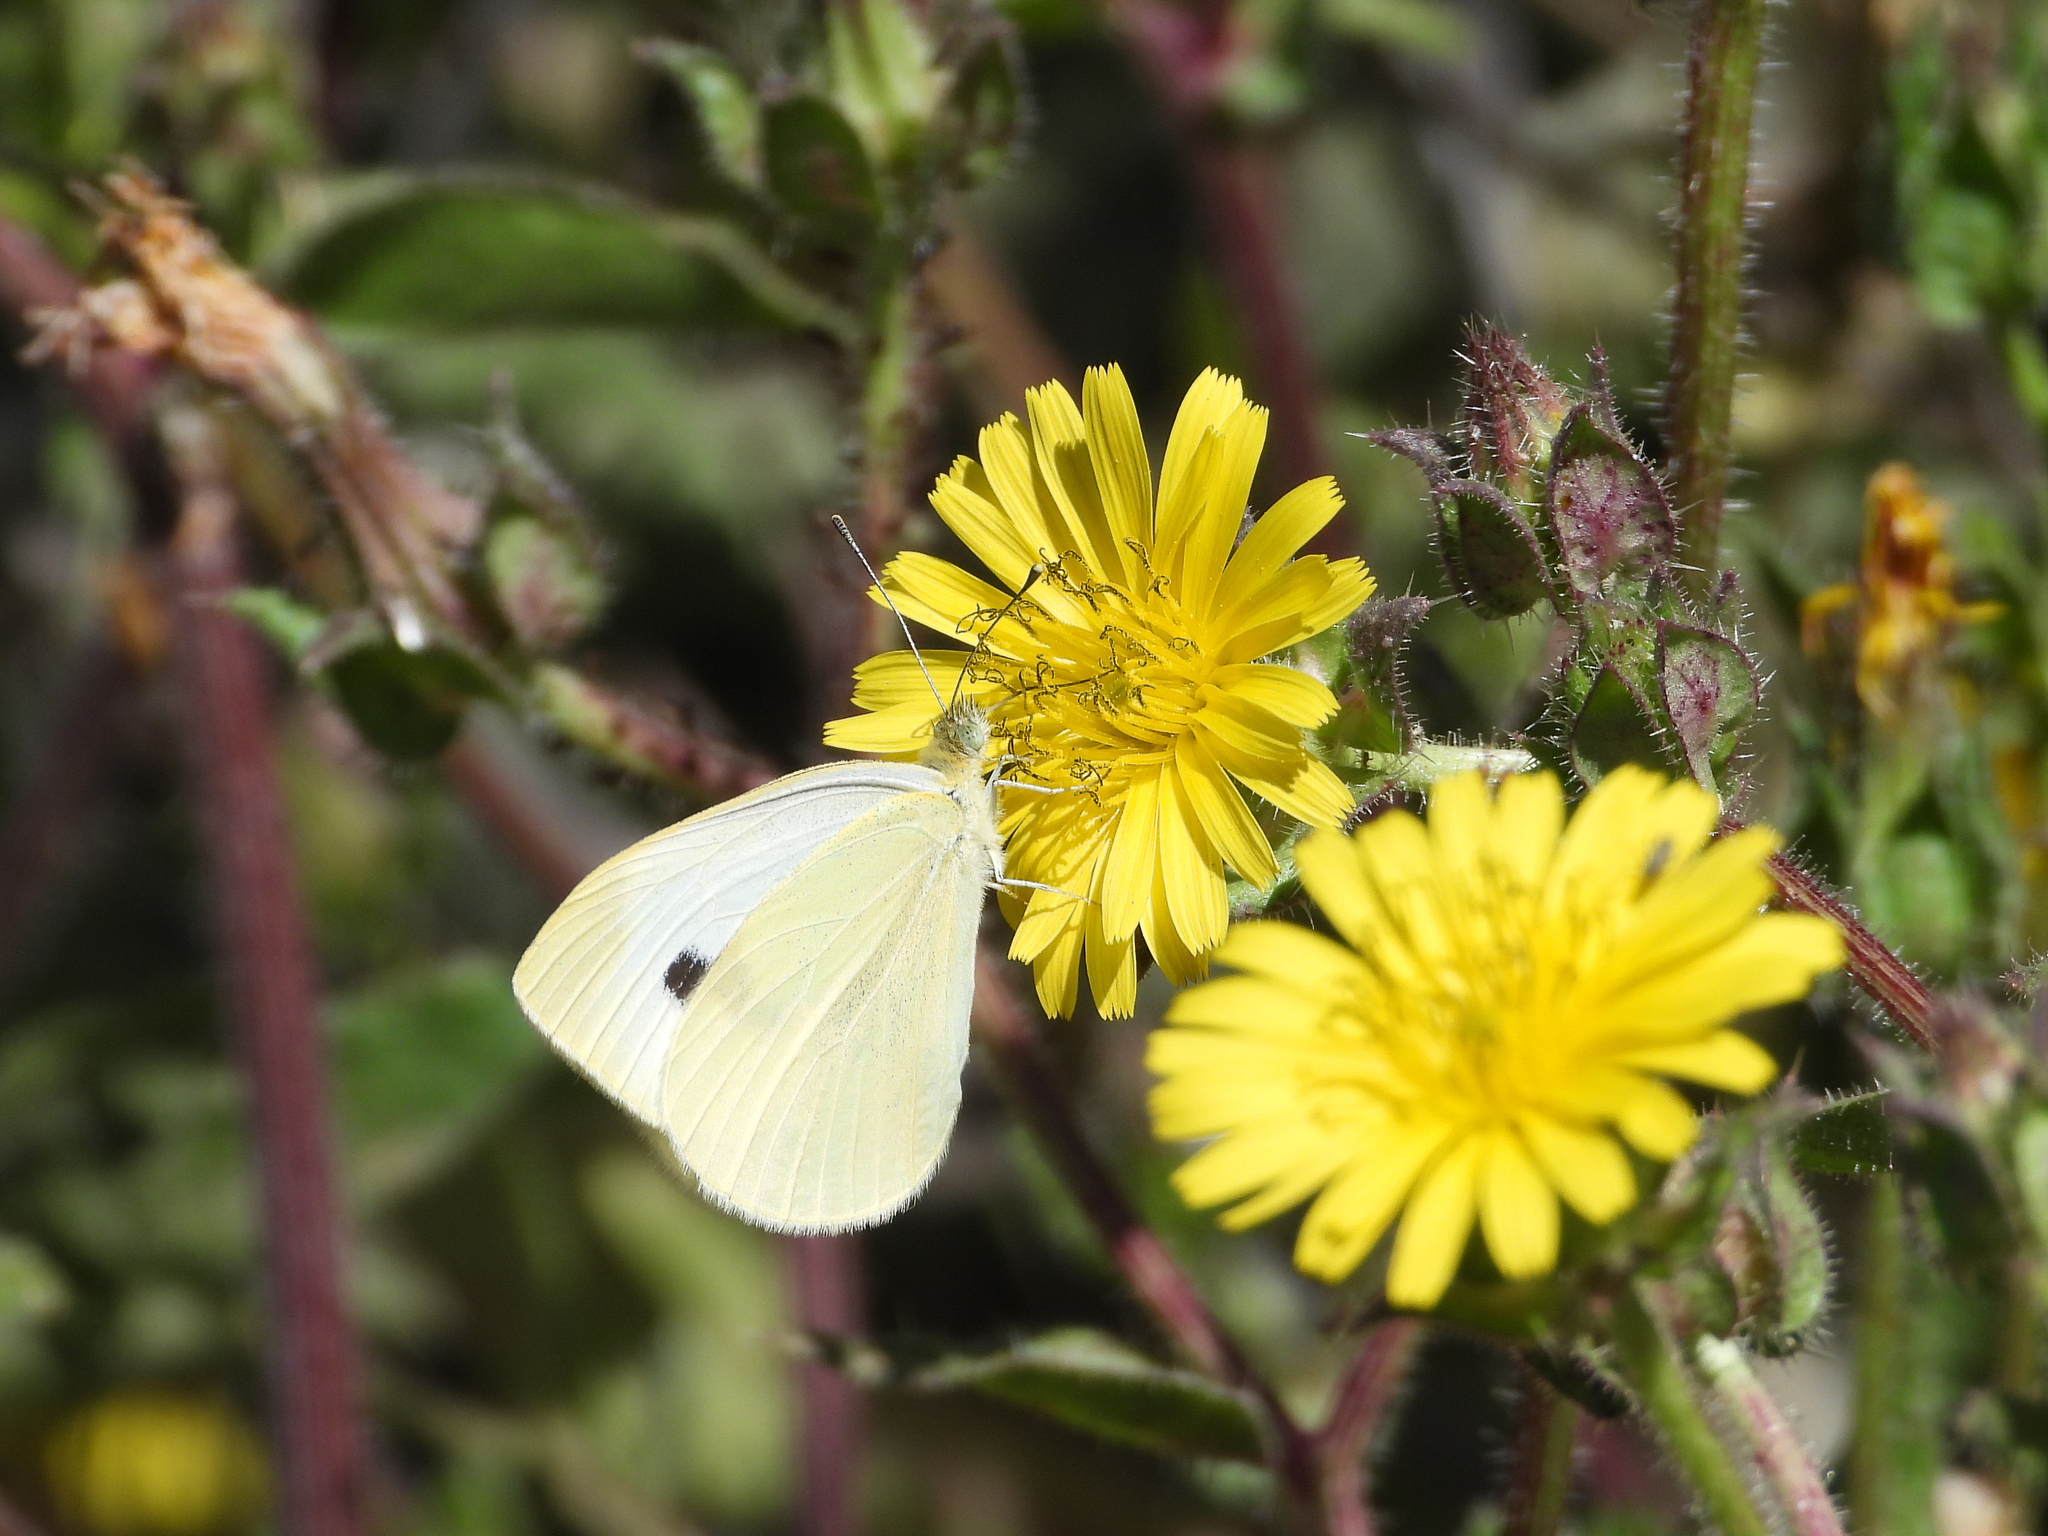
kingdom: Animalia
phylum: Arthropoda
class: Insecta
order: Lepidoptera
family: Pieridae
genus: Pieris
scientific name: Pieris rapae
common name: Small white
